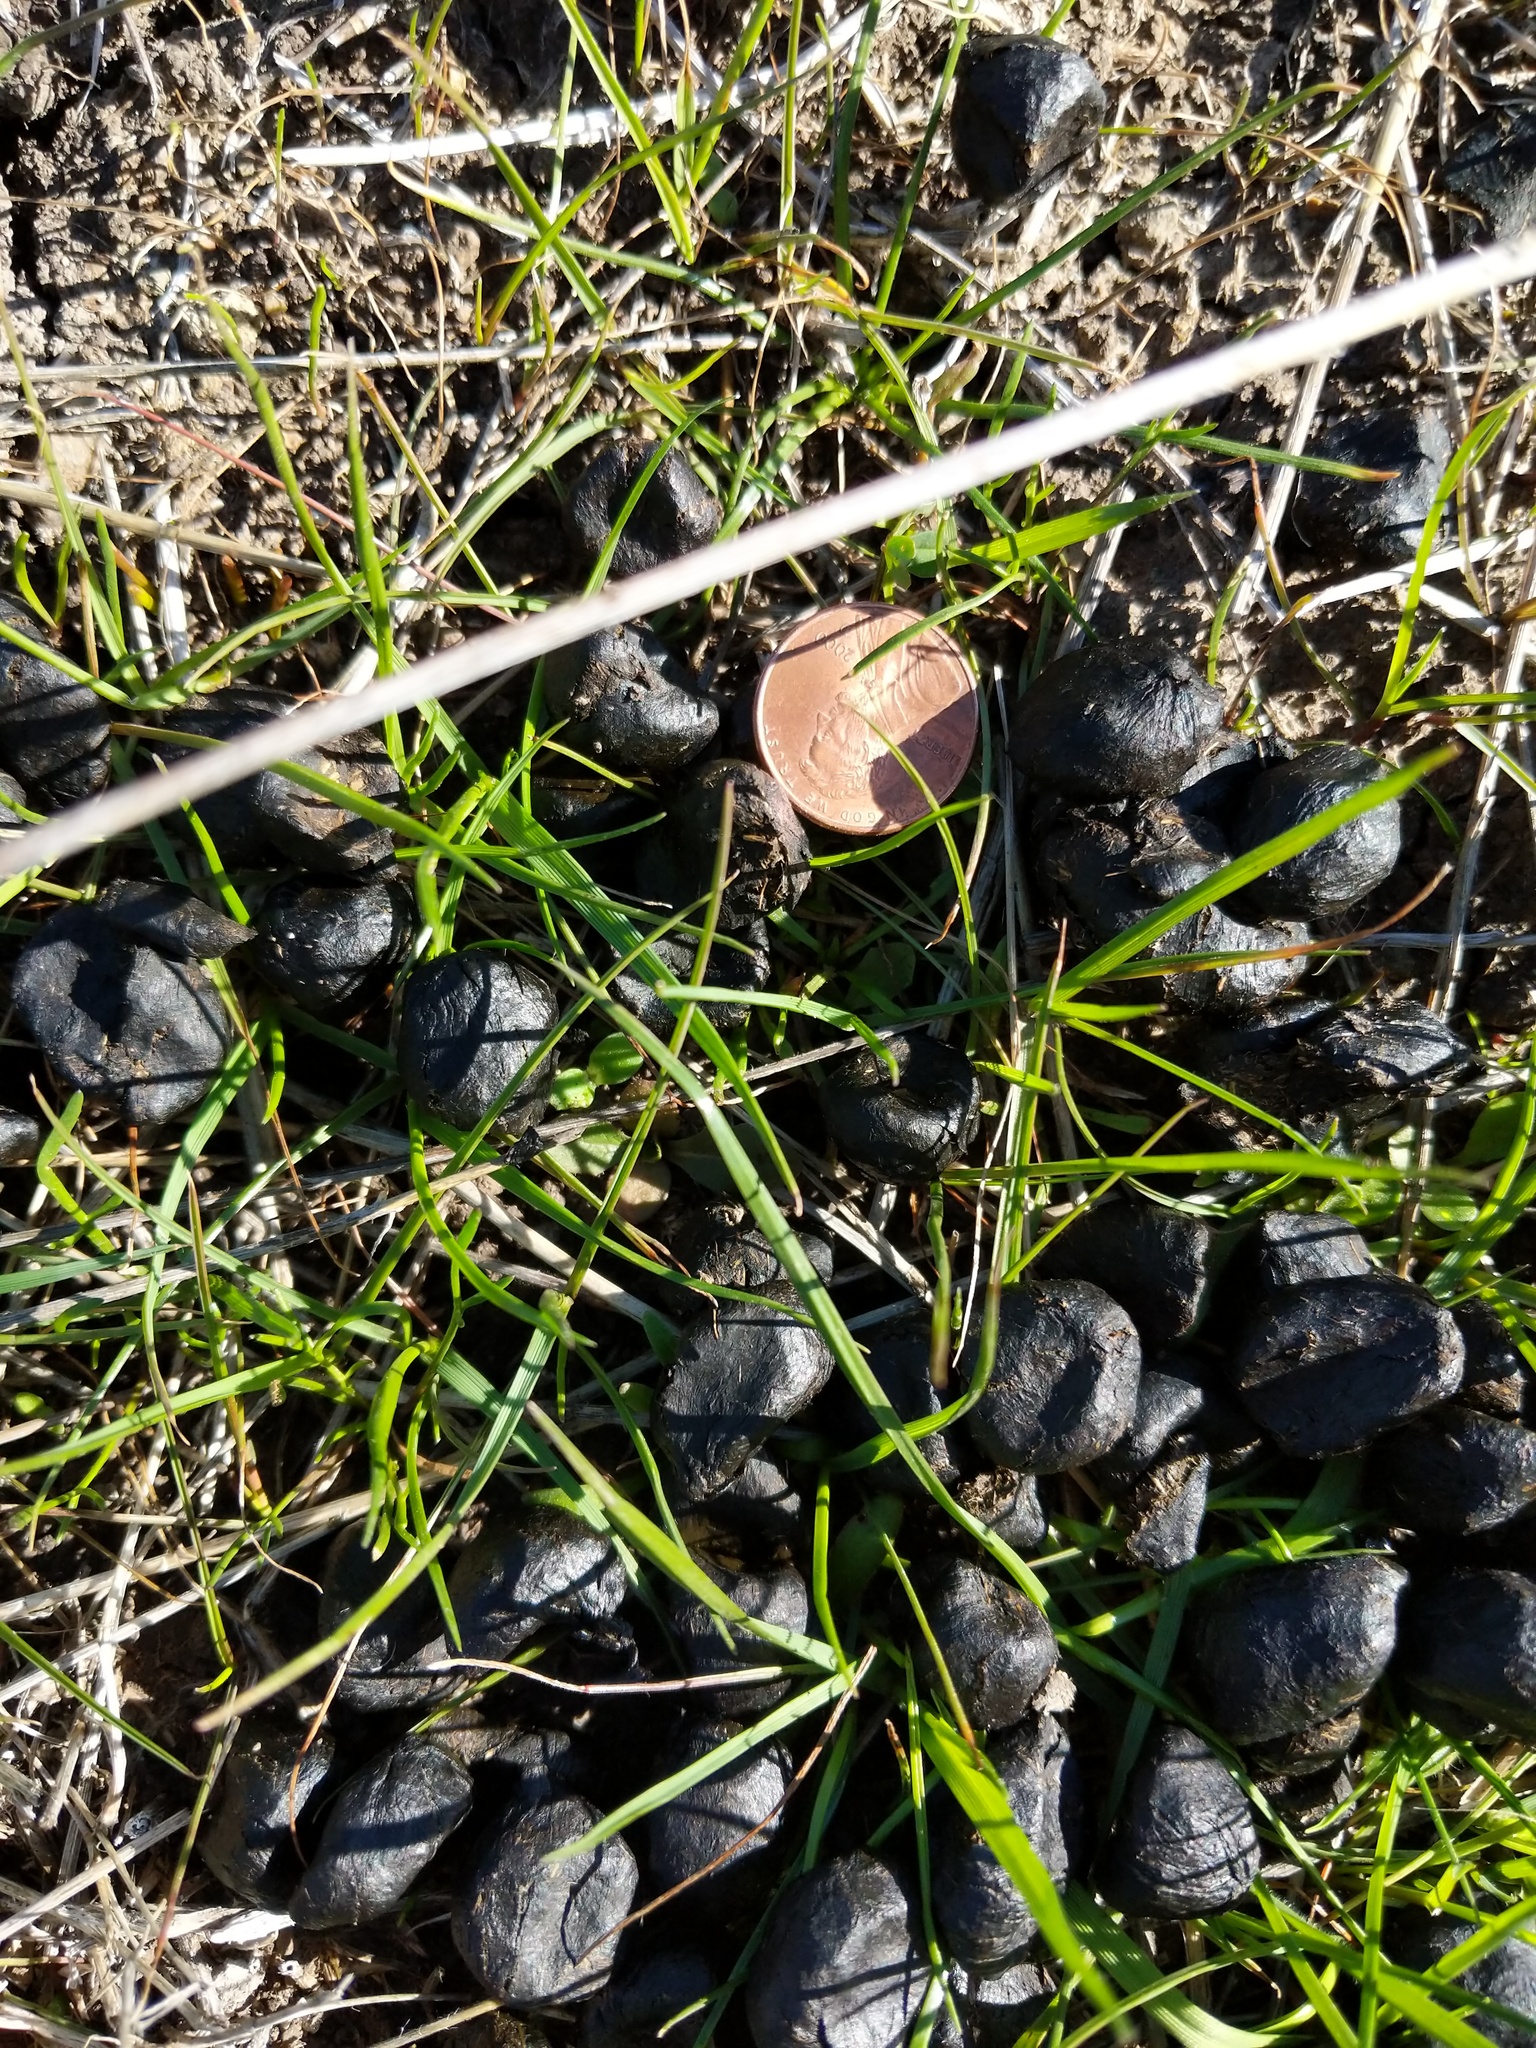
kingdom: Animalia
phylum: Chordata
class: Mammalia
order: Artiodactyla
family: Cervidae
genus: Cervus
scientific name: Cervus elaphus
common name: Red deer
